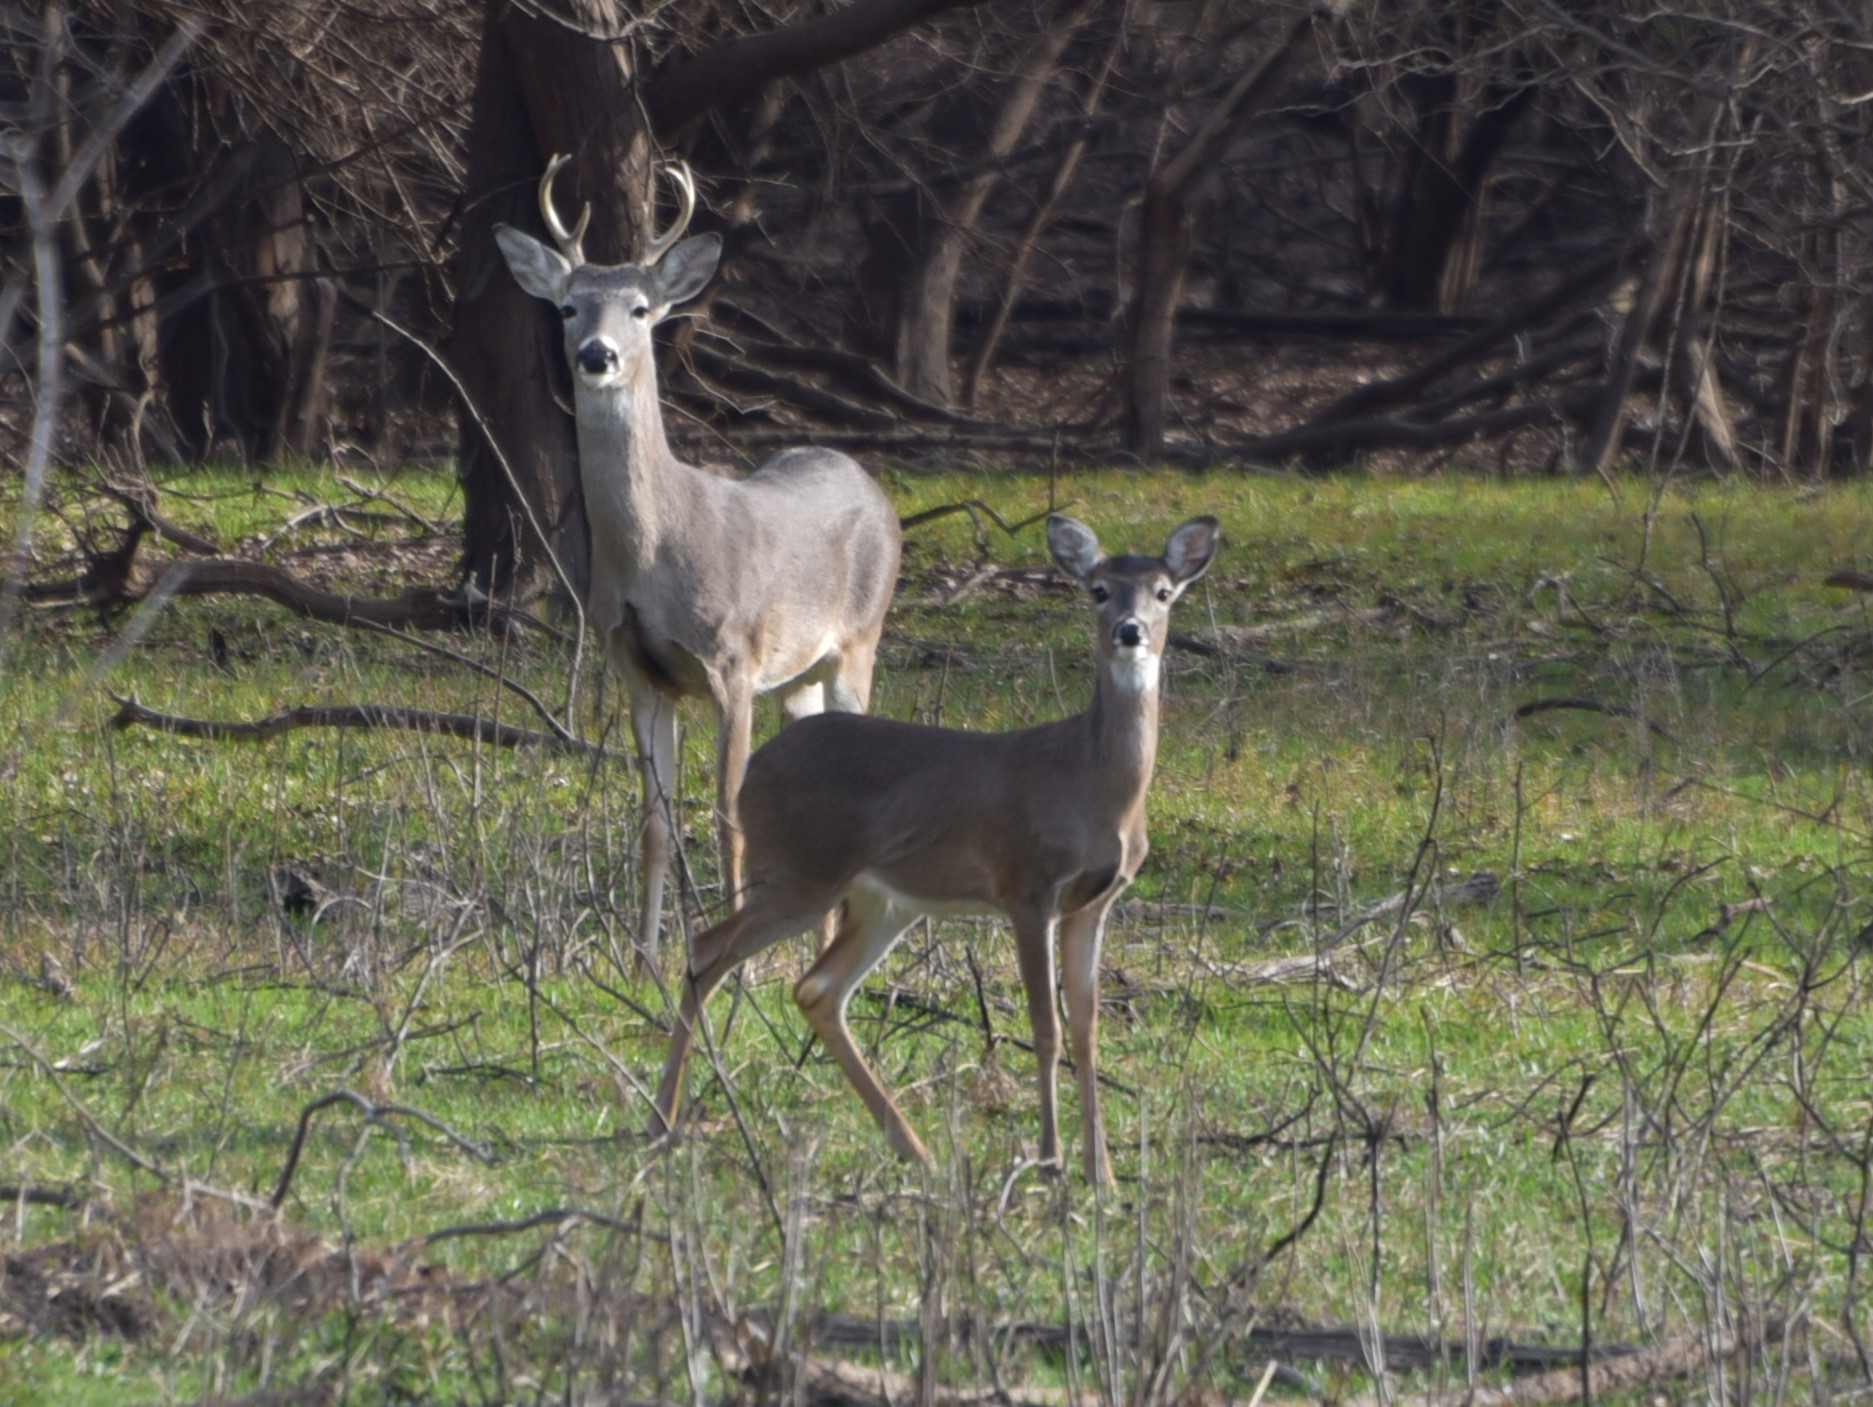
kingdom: Animalia
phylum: Chordata
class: Mammalia
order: Artiodactyla
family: Cervidae
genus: Odocoileus
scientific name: Odocoileus virginianus
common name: White-tailed deer
